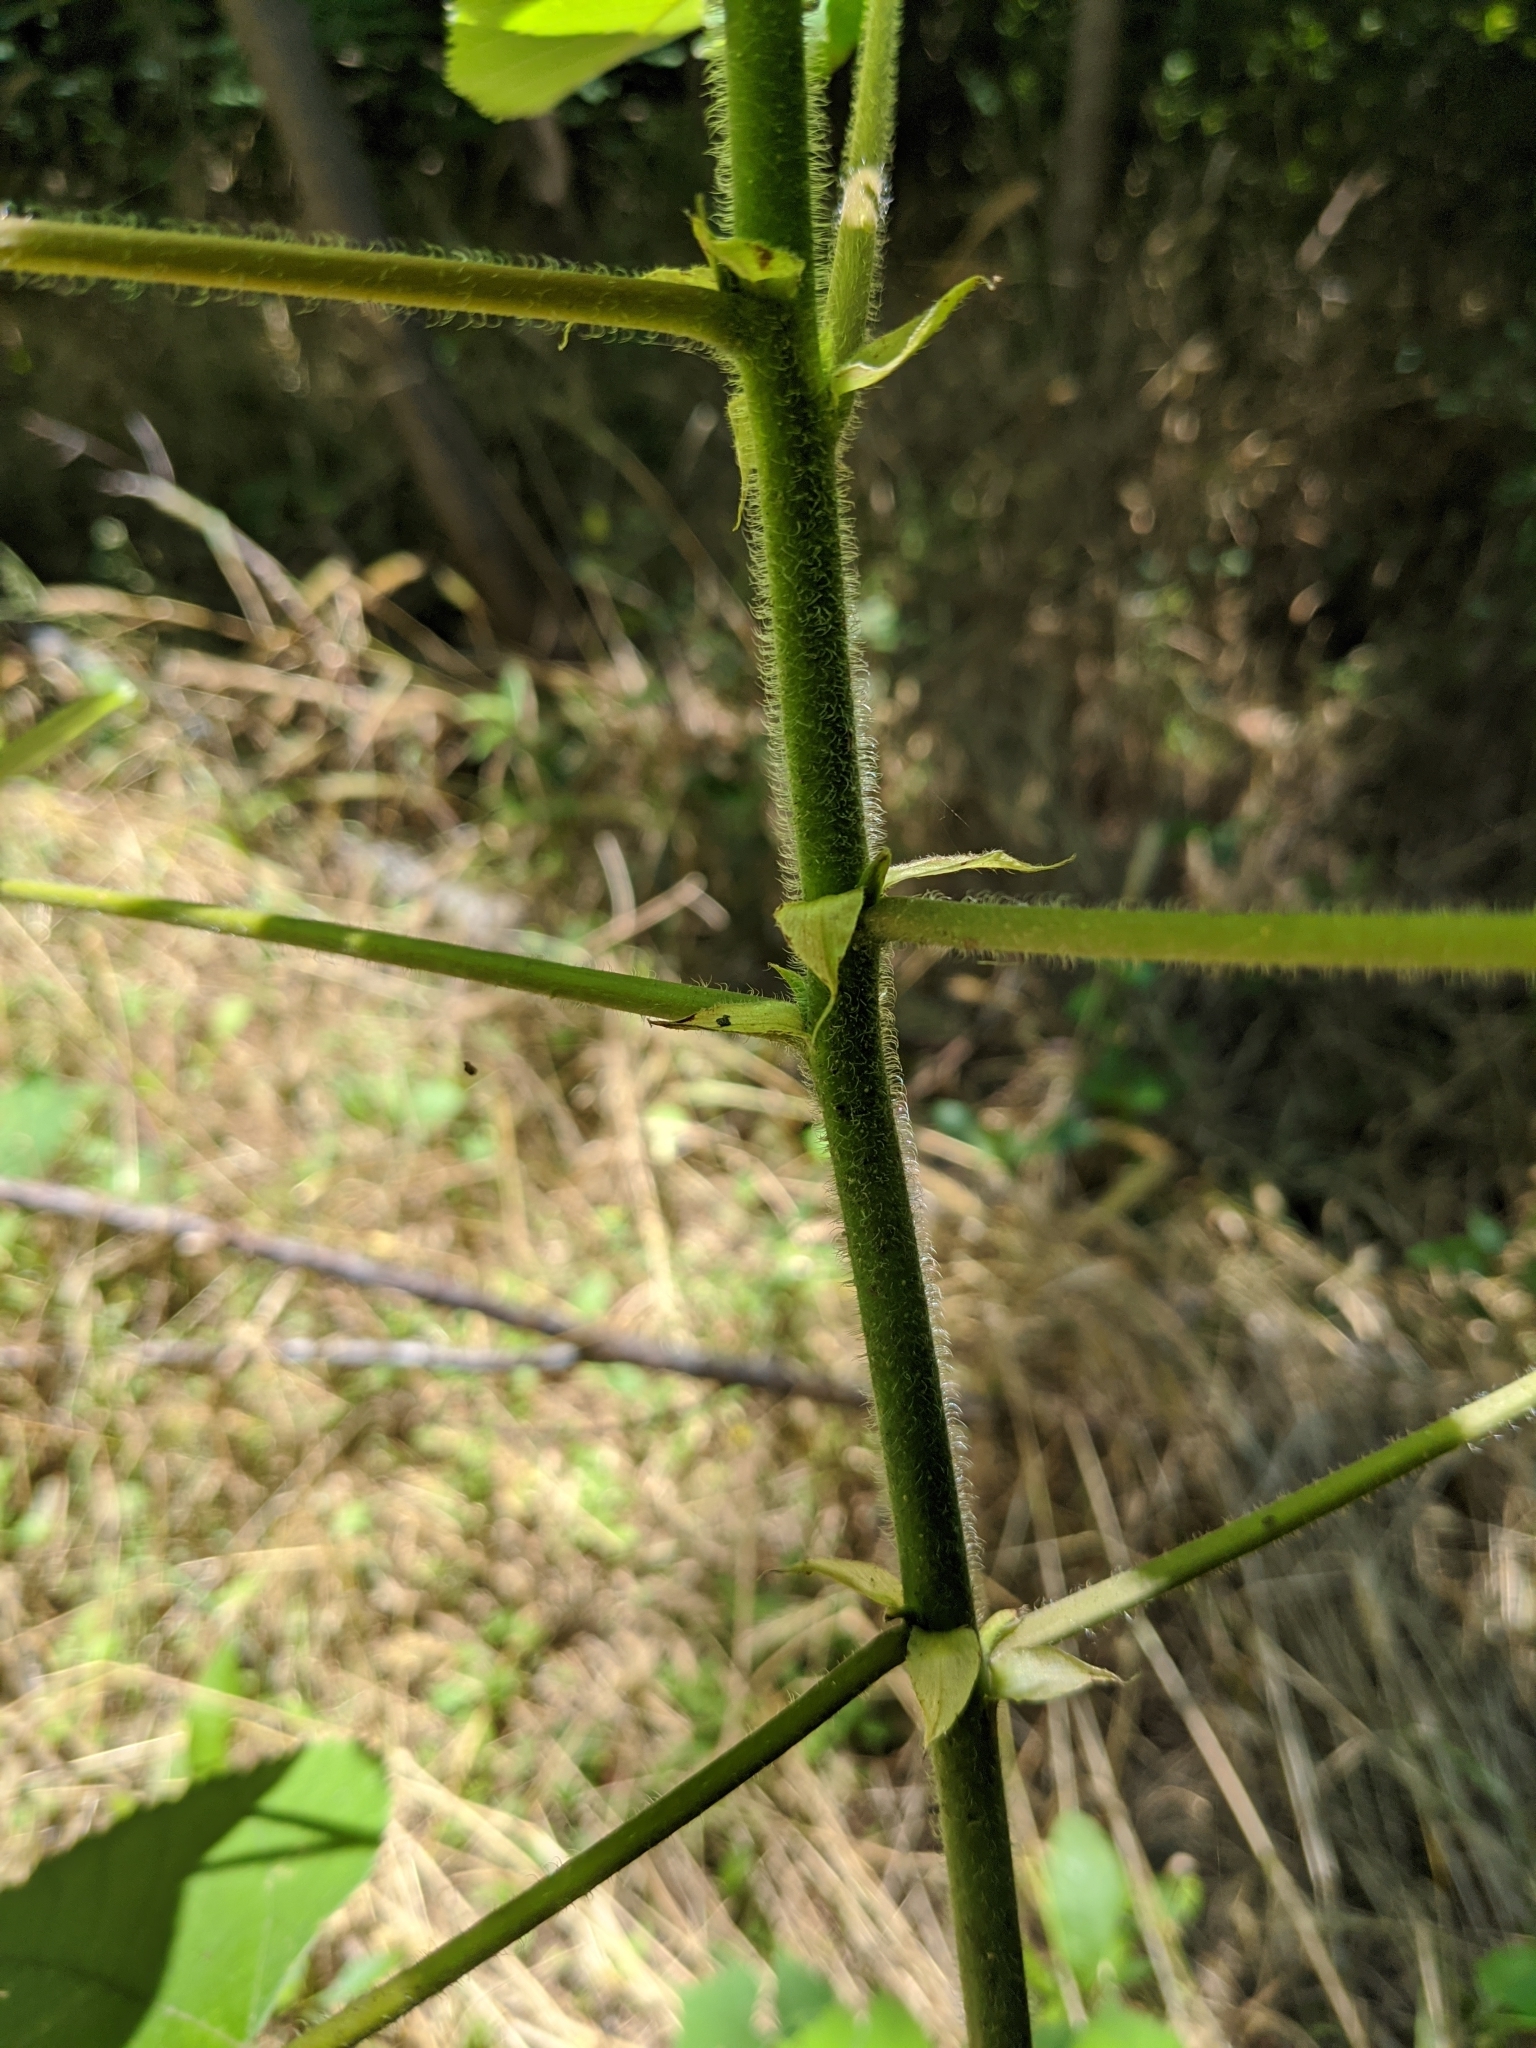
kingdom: Plantae
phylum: Tracheophyta
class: Magnoliopsida
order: Rosales
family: Moraceae
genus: Broussonetia
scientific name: Broussonetia papyrifera
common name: Paper mulberry
